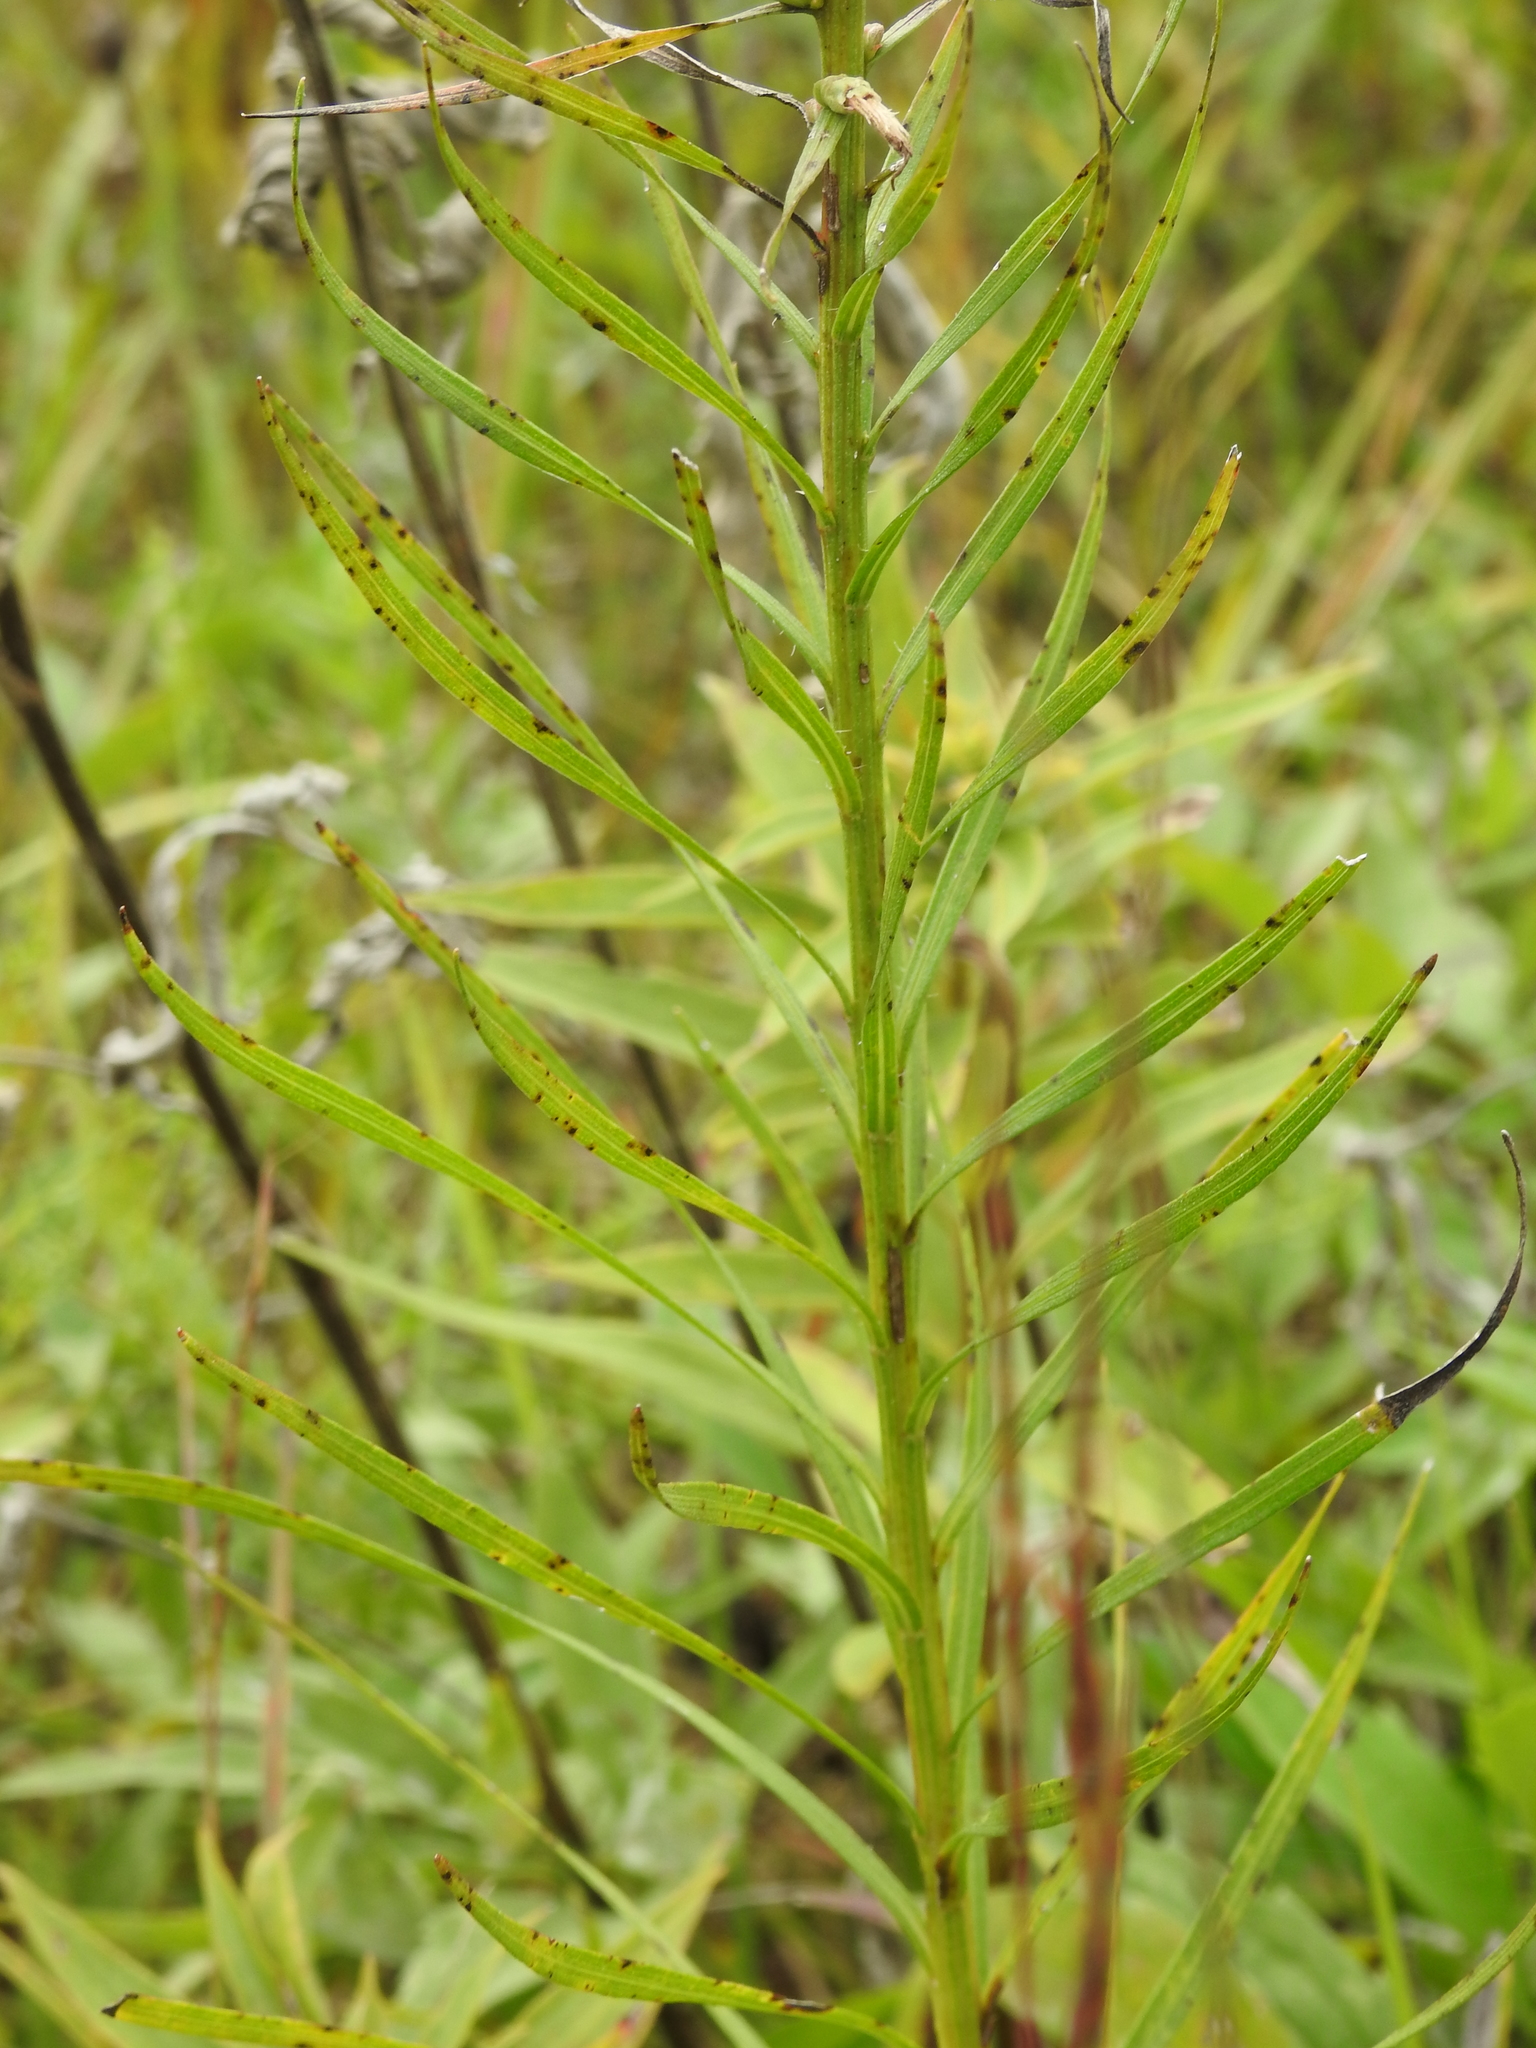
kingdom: Plantae
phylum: Tracheophyta
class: Magnoliopsida
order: Asterales
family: Asteraceae
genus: Liatris
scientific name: Liatris spicata
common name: Florist gayfeather
